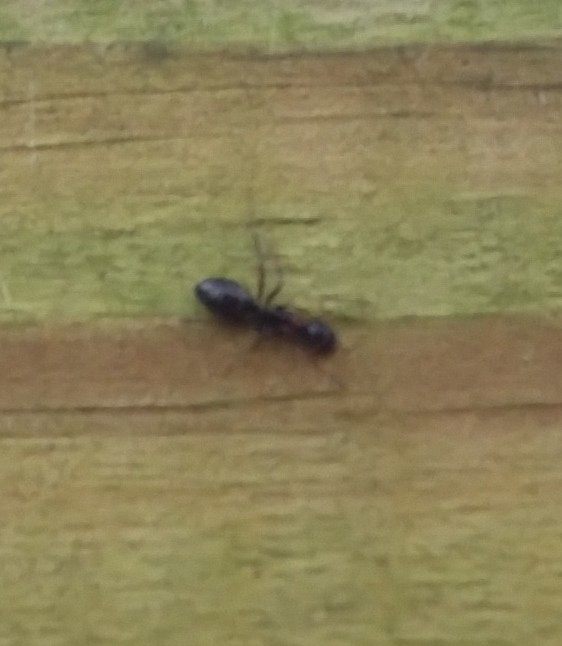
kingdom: Animalia
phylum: Arthropoda
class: Insecta
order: Hymenoptera
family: Formicidae
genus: Camponotus
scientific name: Camponotus nearcticus
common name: Smaller carpenter ant
